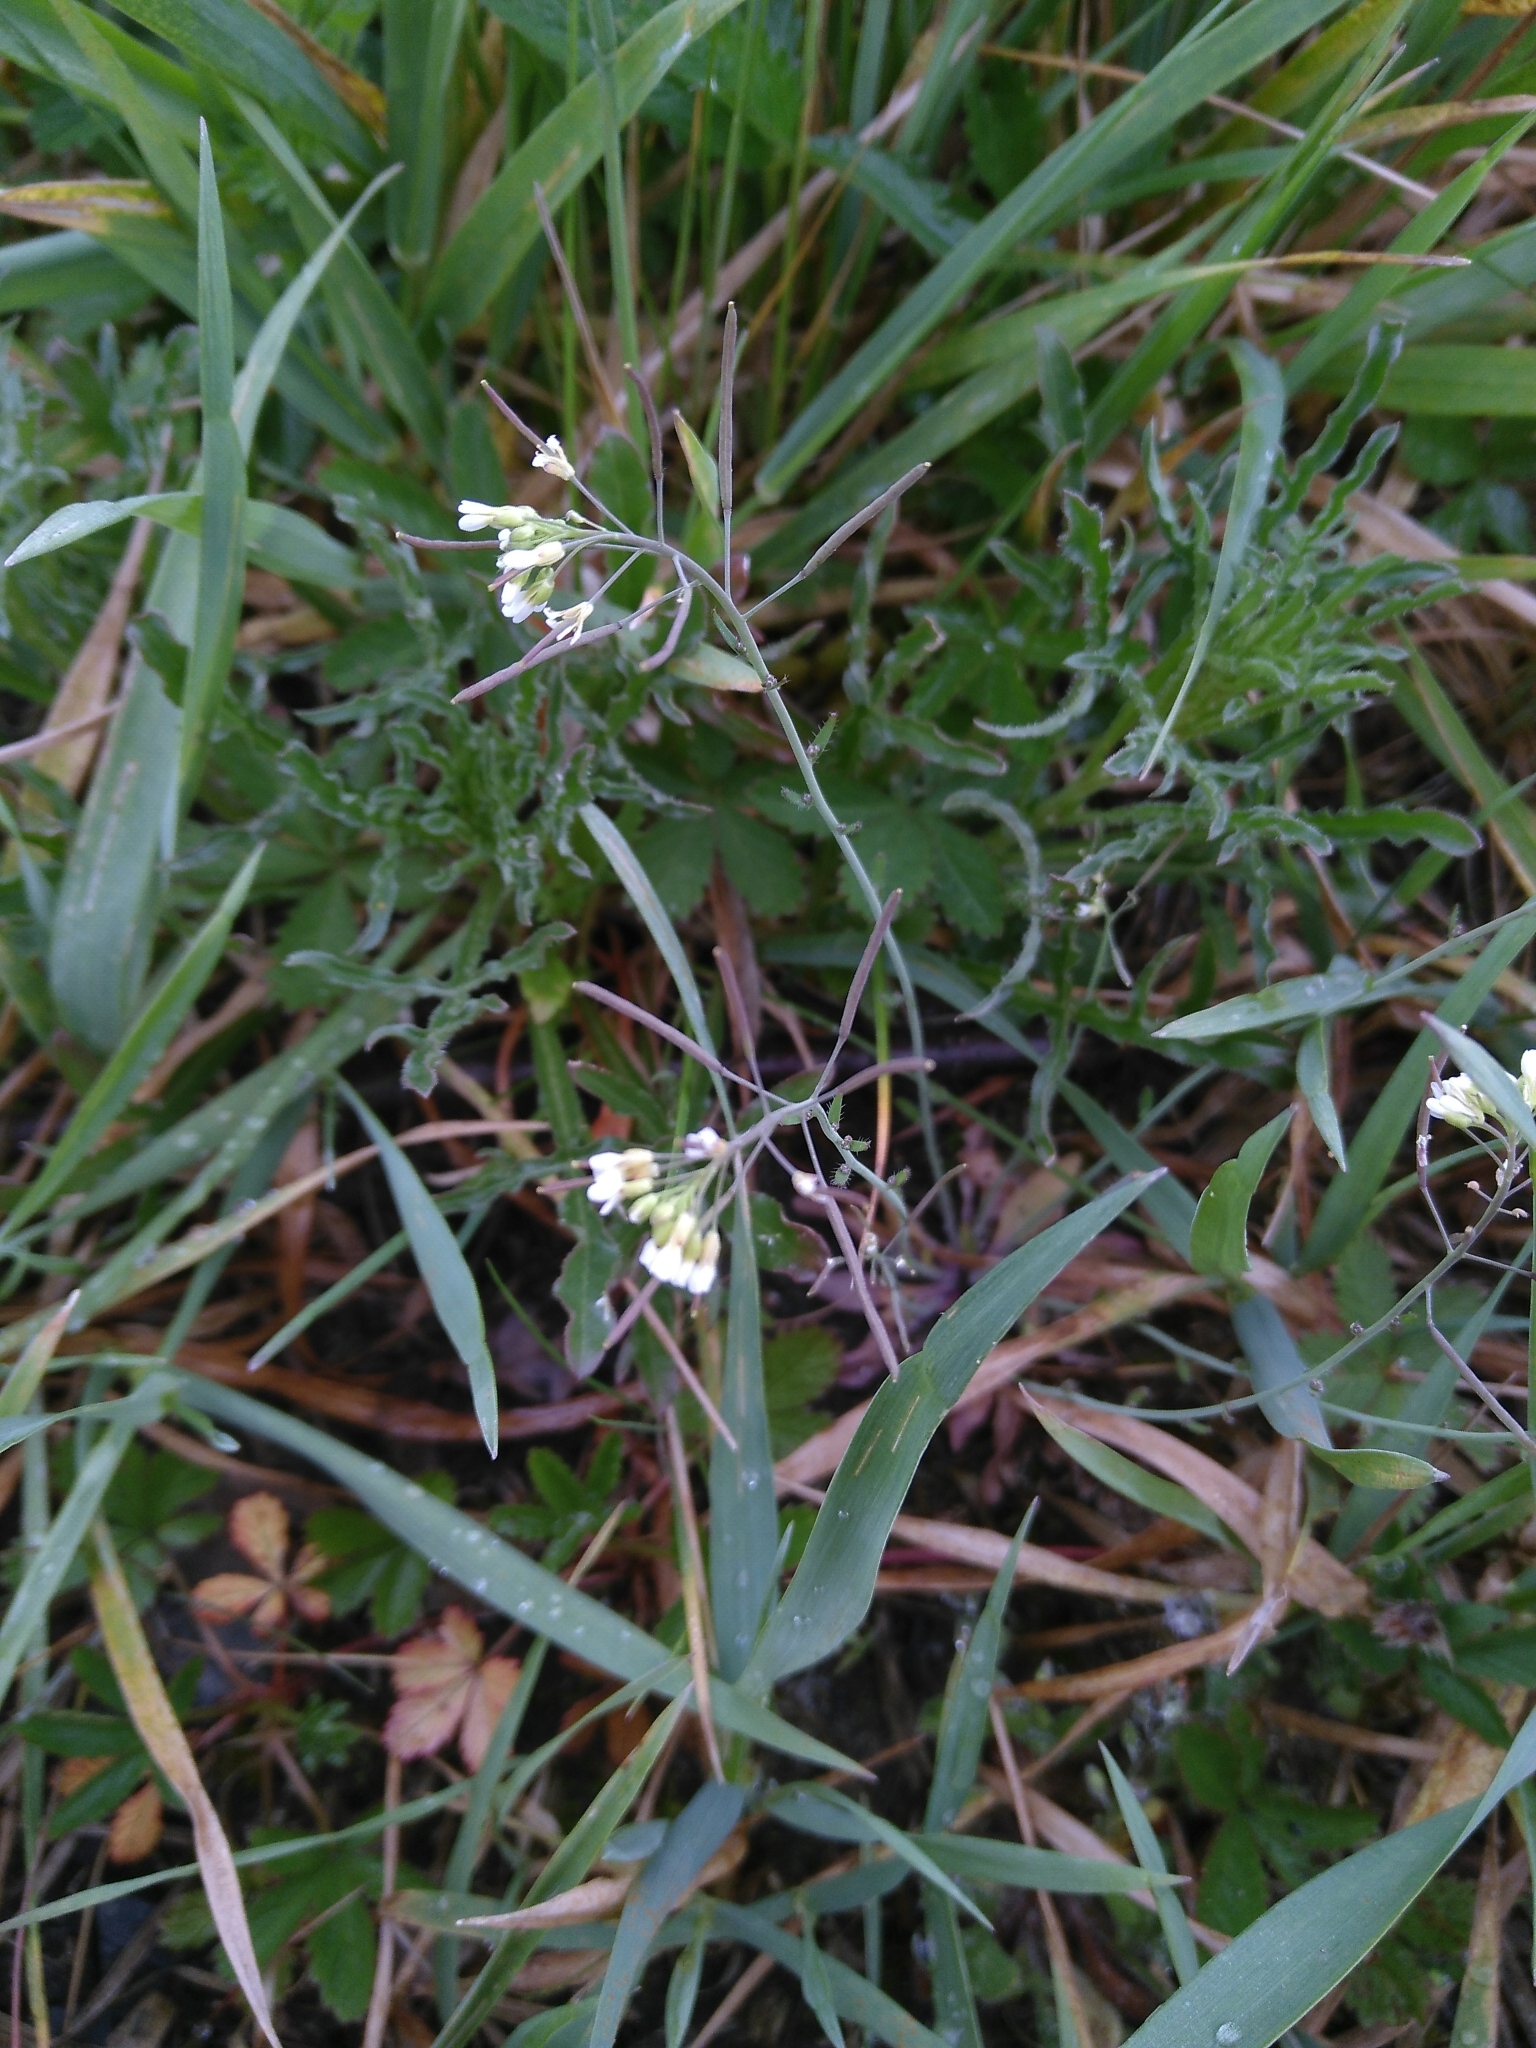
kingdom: Plantae
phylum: Tracheophyta
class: Magnoliopsida
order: Brassicales
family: Brassicaceae
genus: Arabidopsis
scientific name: Arabidopsis thaliana
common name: Thale cress
